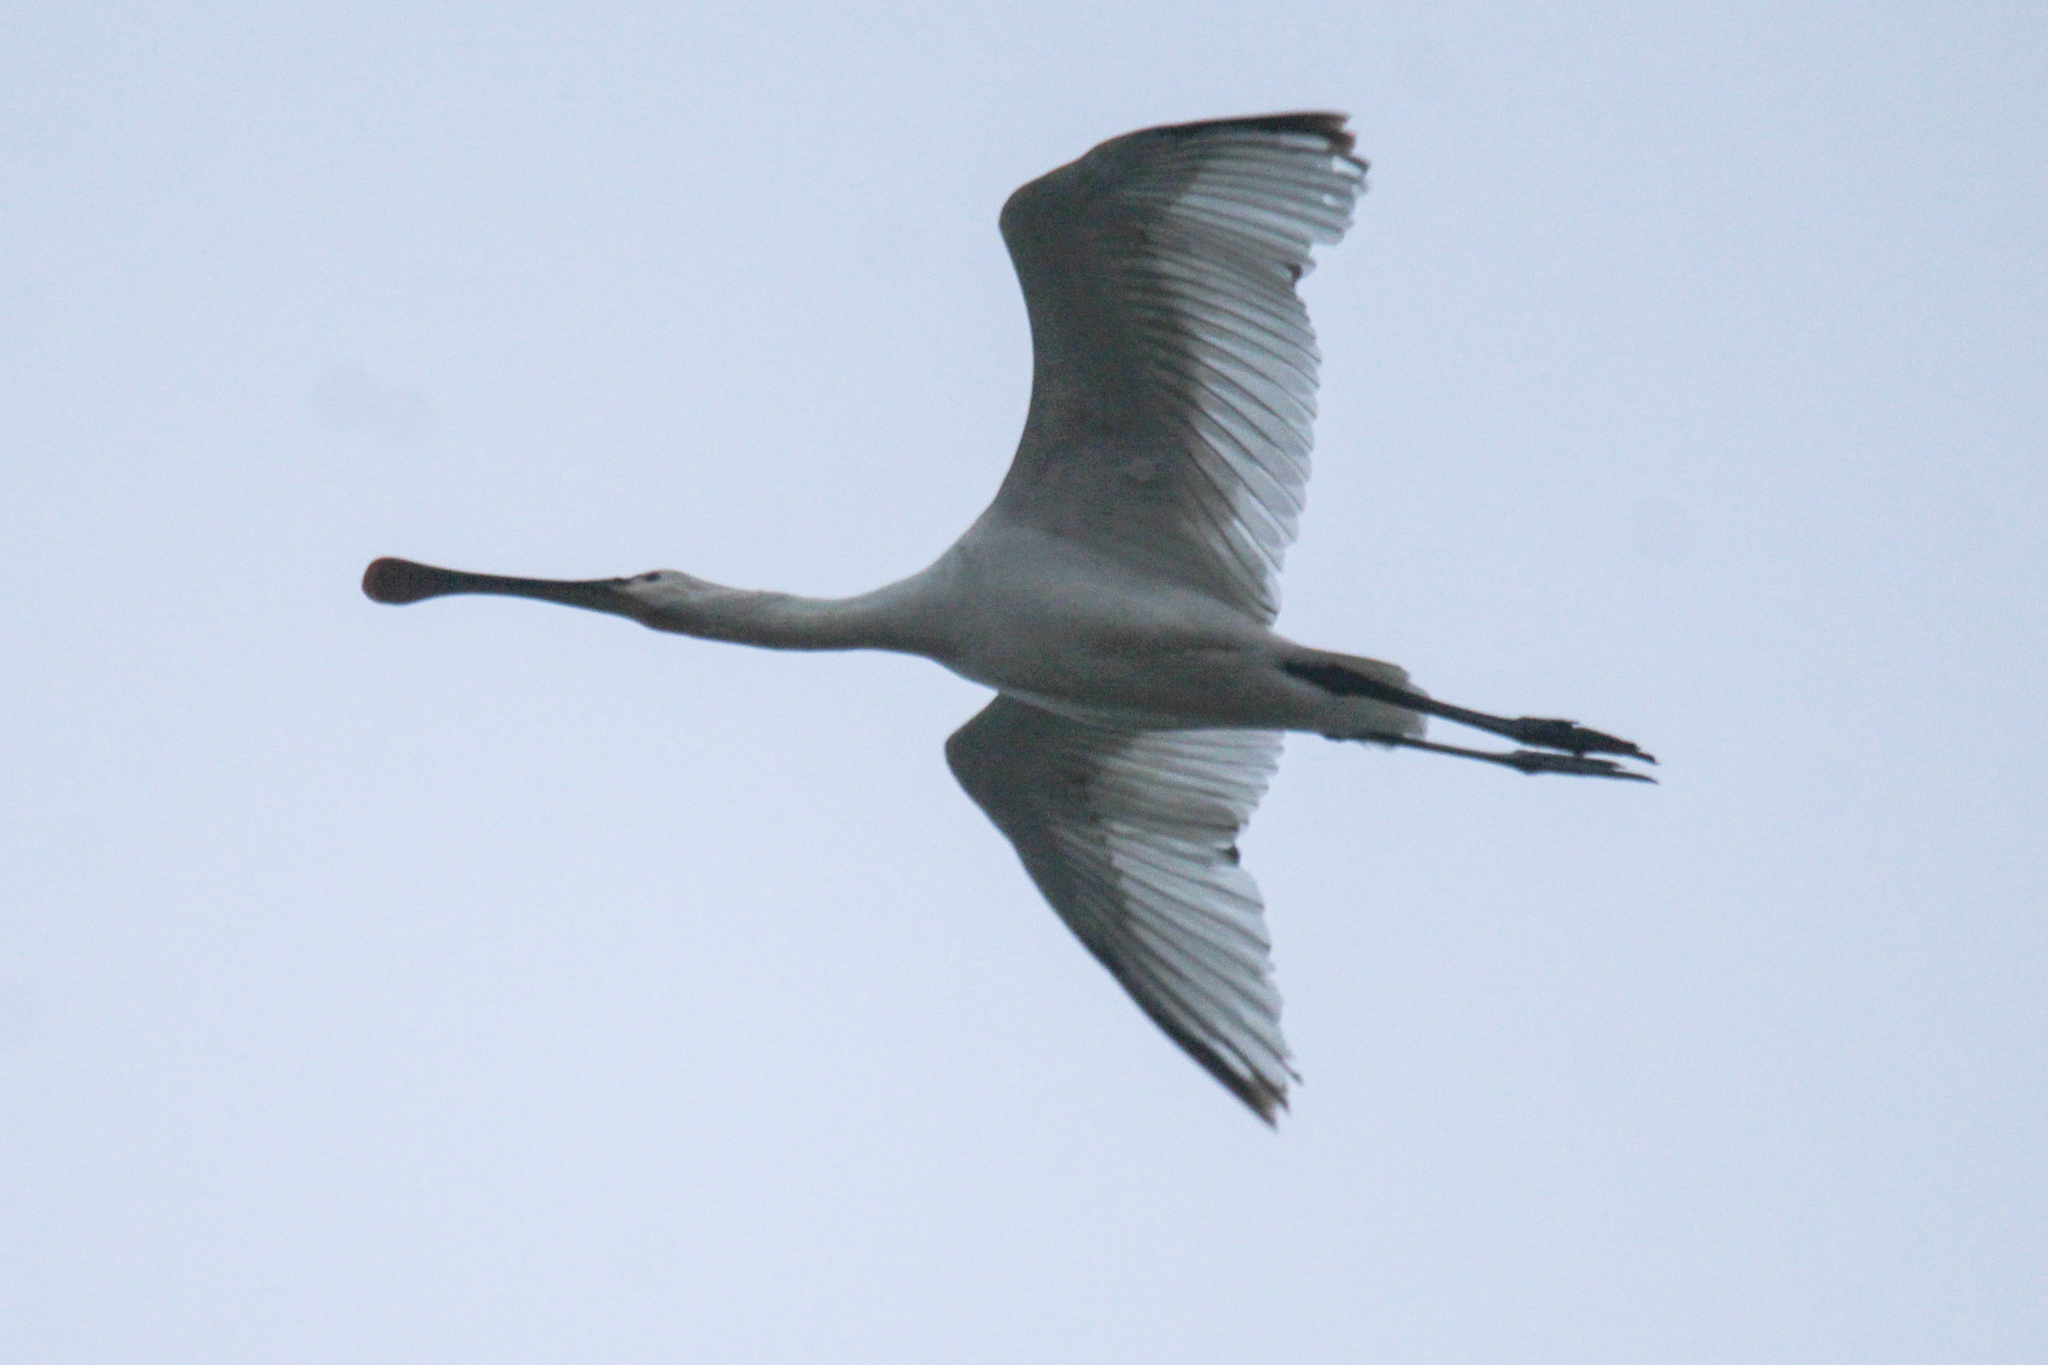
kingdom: Animalia
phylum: Chordata
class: Aves
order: Pelecaniformes
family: Threskiornithidae
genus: Platalea
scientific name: Platalea leucorodia
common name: Eurasian spoonbill
